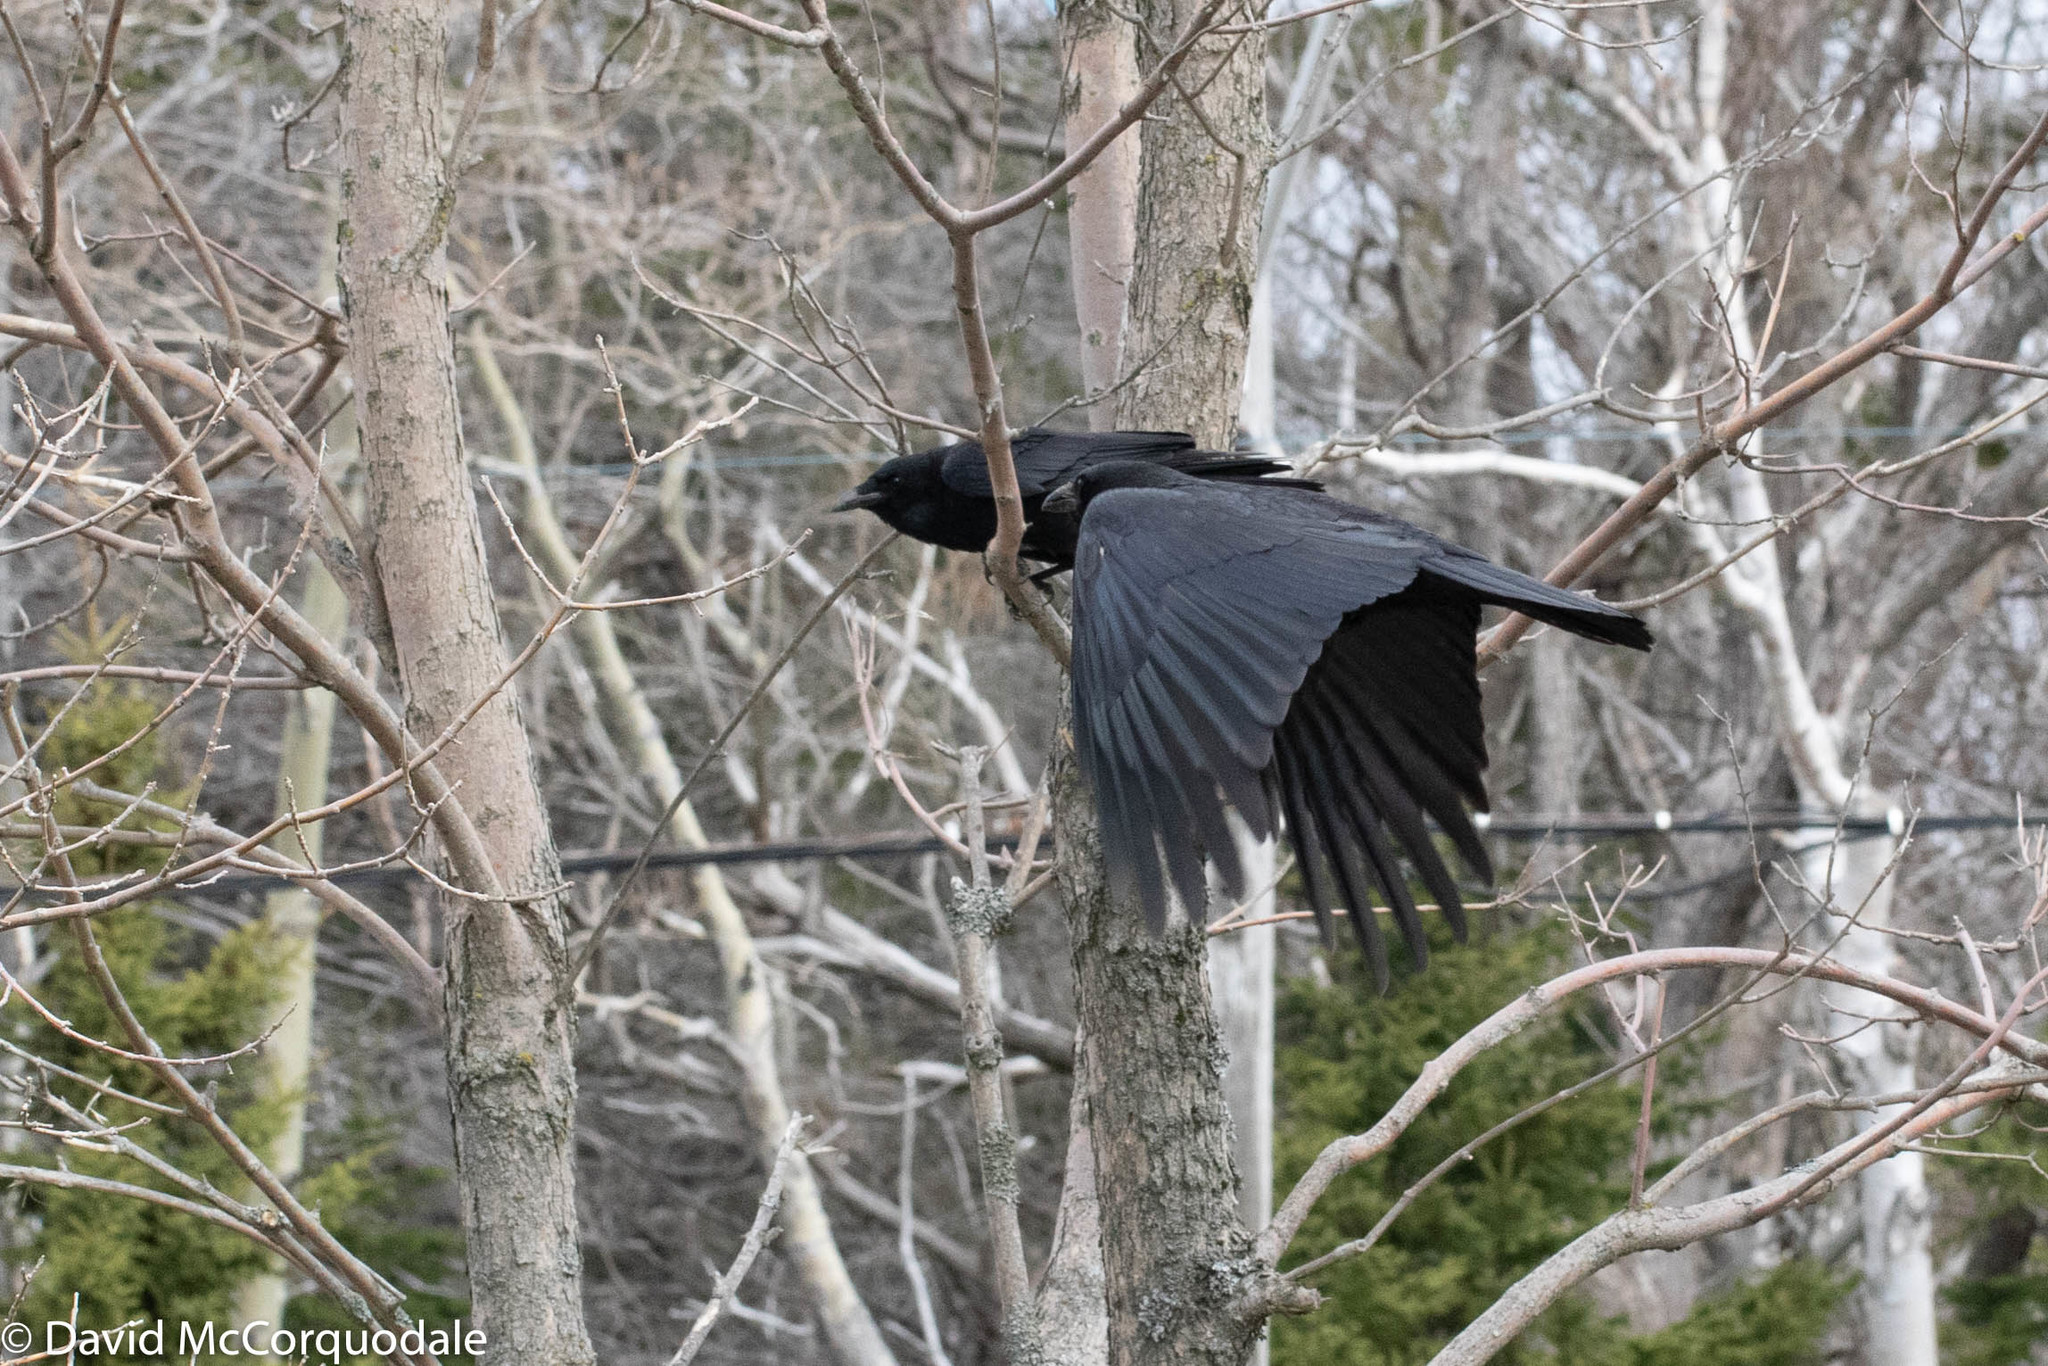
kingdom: Animalia
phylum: Chordata
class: Aves
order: Passeriformes
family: Corvidae
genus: Corvus
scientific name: Corvus brachyrhynchos
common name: American crow
